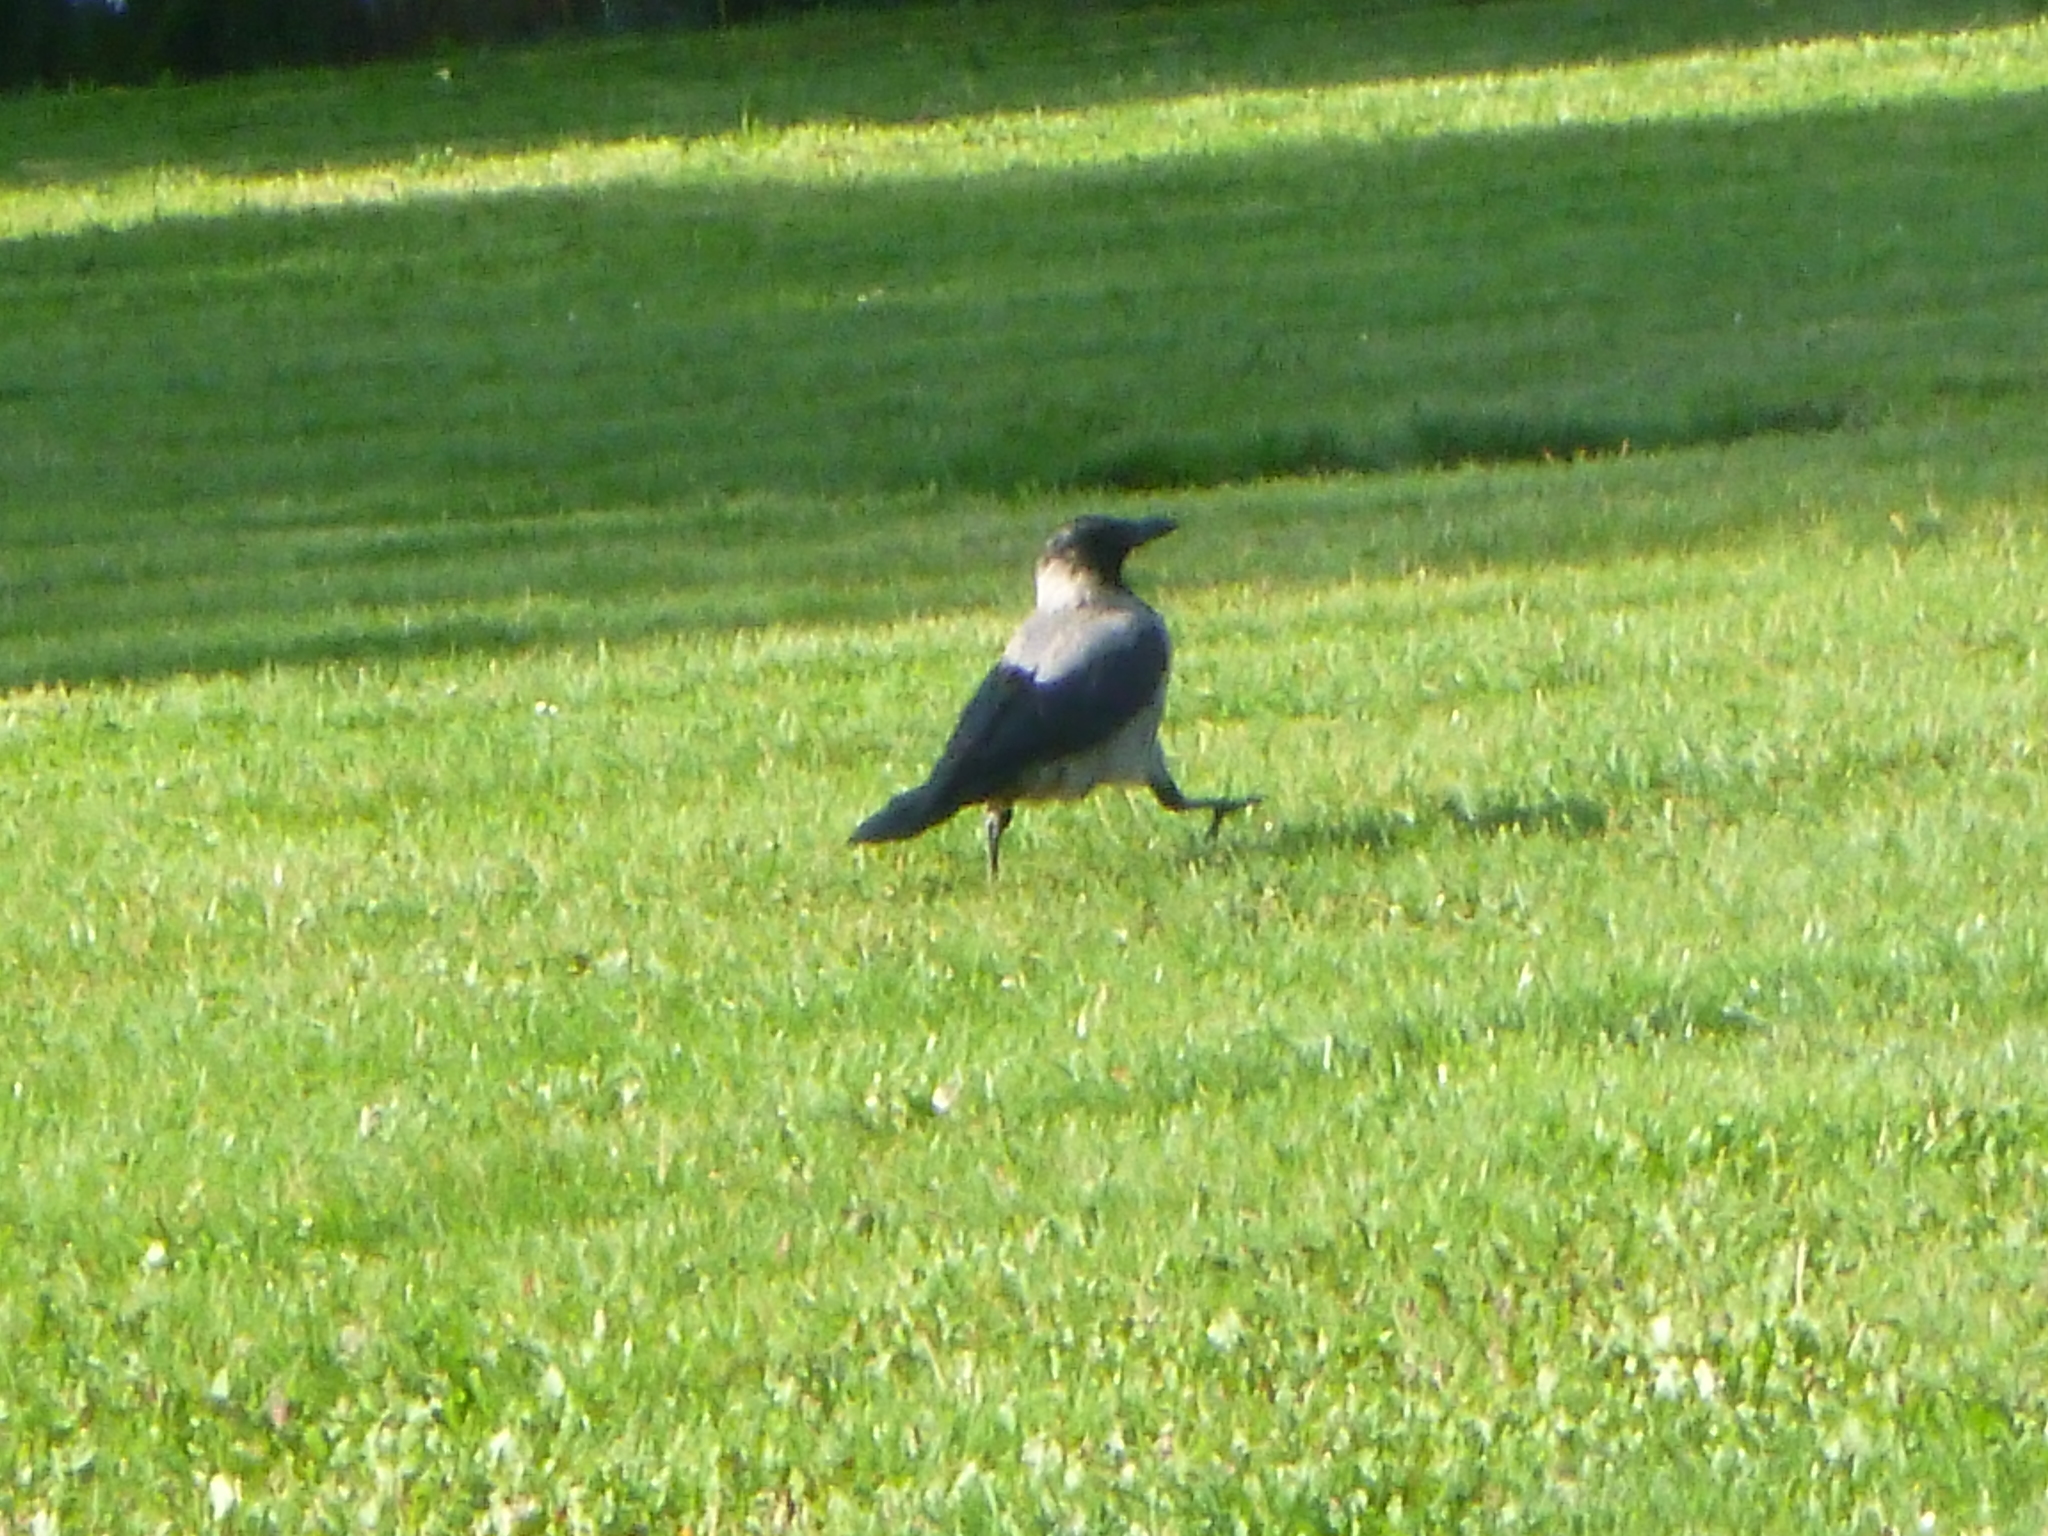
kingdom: Animalia
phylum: Chordata
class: Aves
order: Passeriformes
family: Corvidae
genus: Corvus
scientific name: Corvus cornix
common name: Hooded crow
